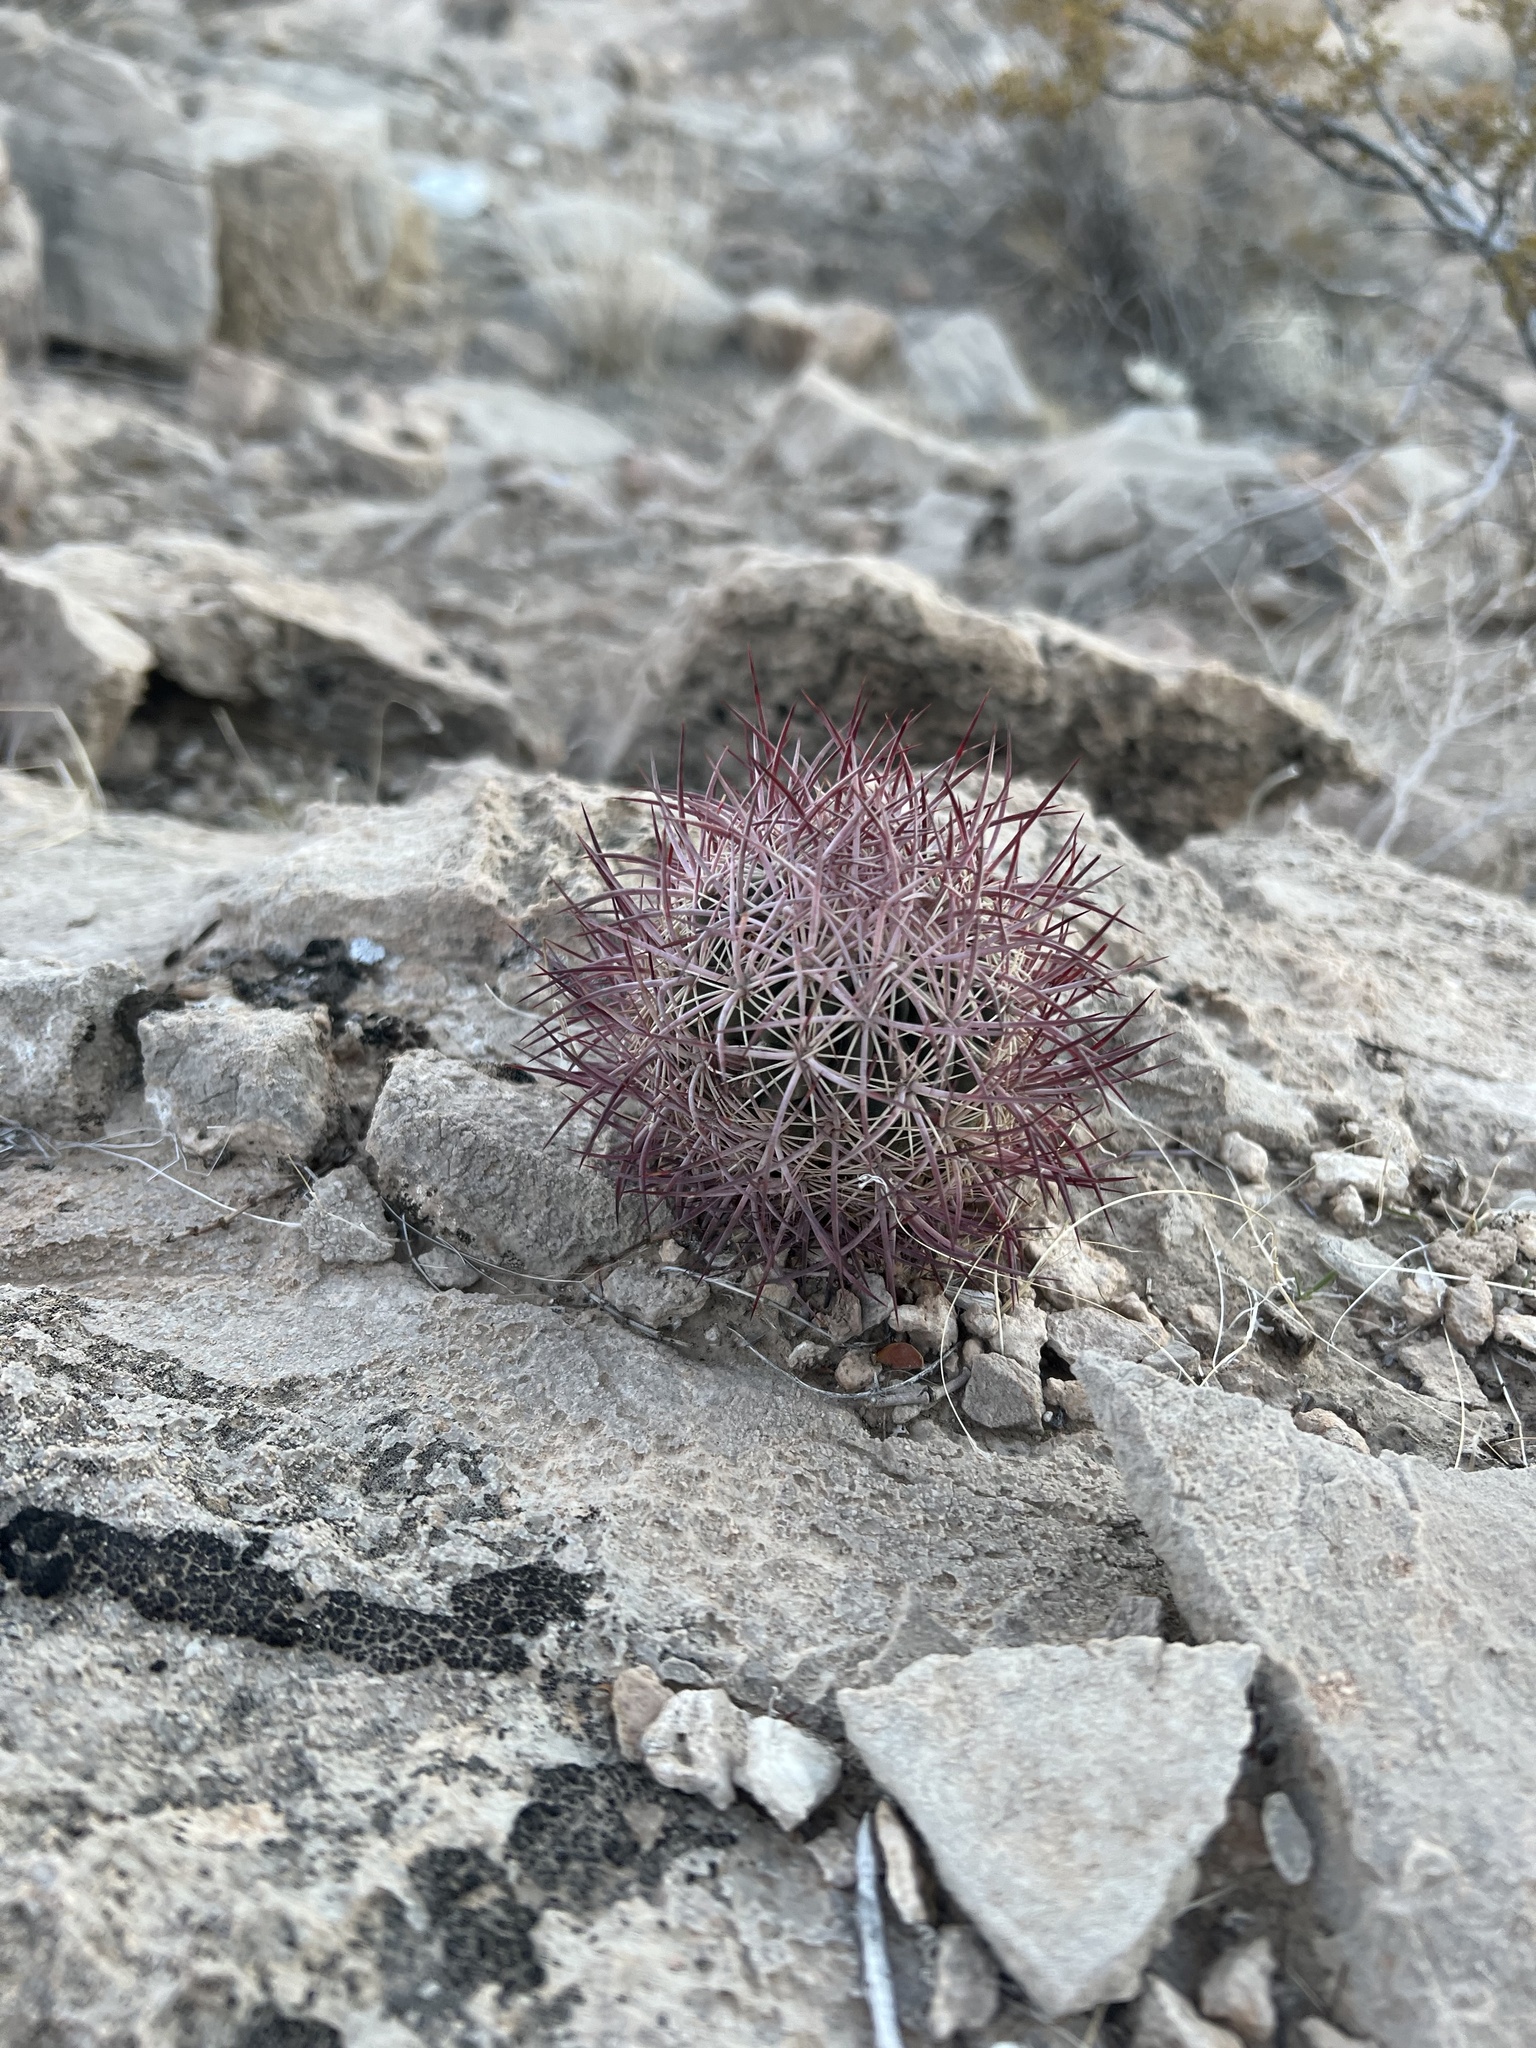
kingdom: Plantae
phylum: Tracheophyta
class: Magnoliopsida
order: Caryophyllales
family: Cactaceae
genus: Sclerocactus
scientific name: Sclerocactus johnsonii
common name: Eight-spine fishhook cactus
